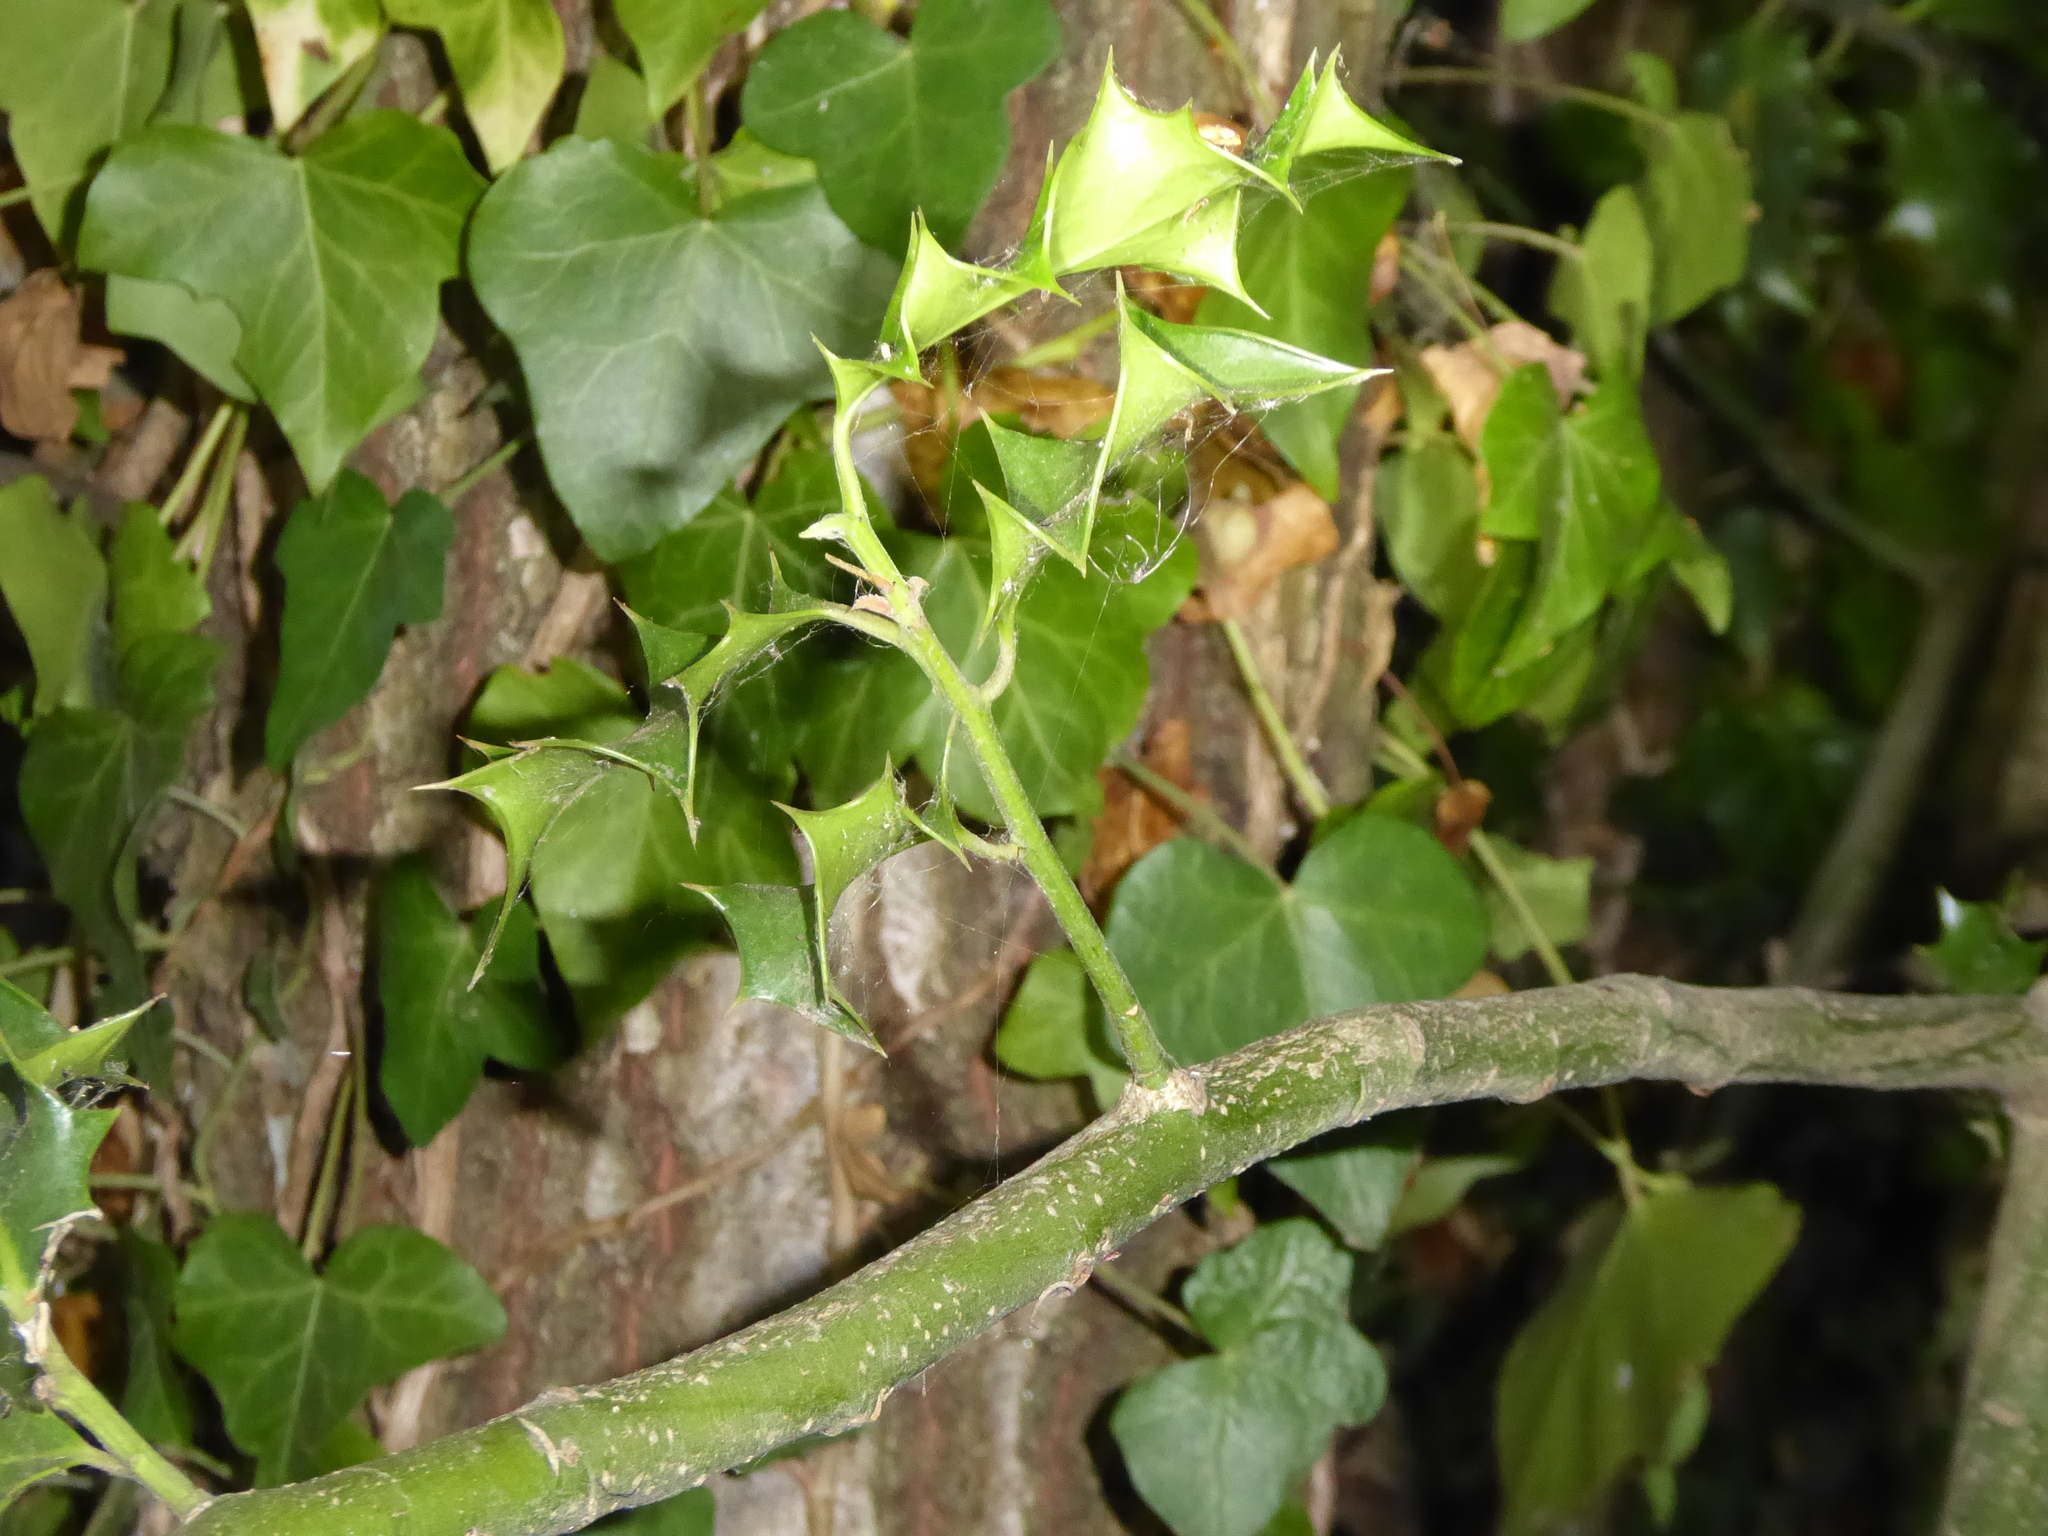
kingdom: Plantae
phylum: Tracheophyta
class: Magnoliopsida
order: Aquifoliales
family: Aquifoliaceae
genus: Ilex
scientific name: Ilex aquifolium
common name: English holly
